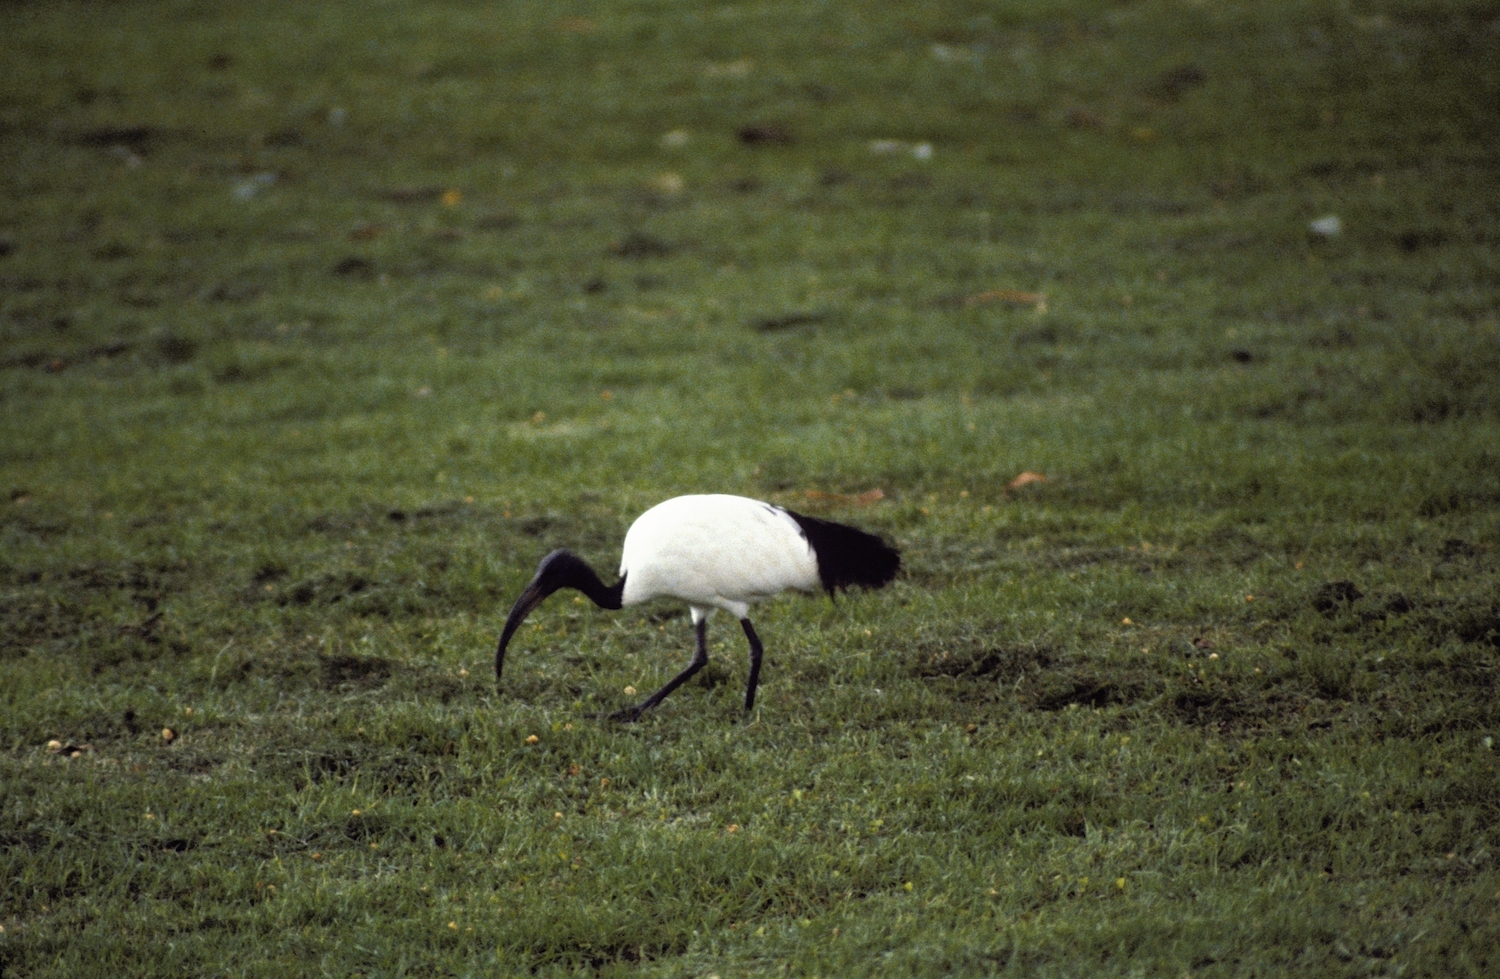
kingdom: Animalia
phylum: Chordata
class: Aves
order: Pelecaniformes
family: Threskiornithidae
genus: Threskiornis
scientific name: Threskiornis aethiopicus
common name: Sacred ibis
